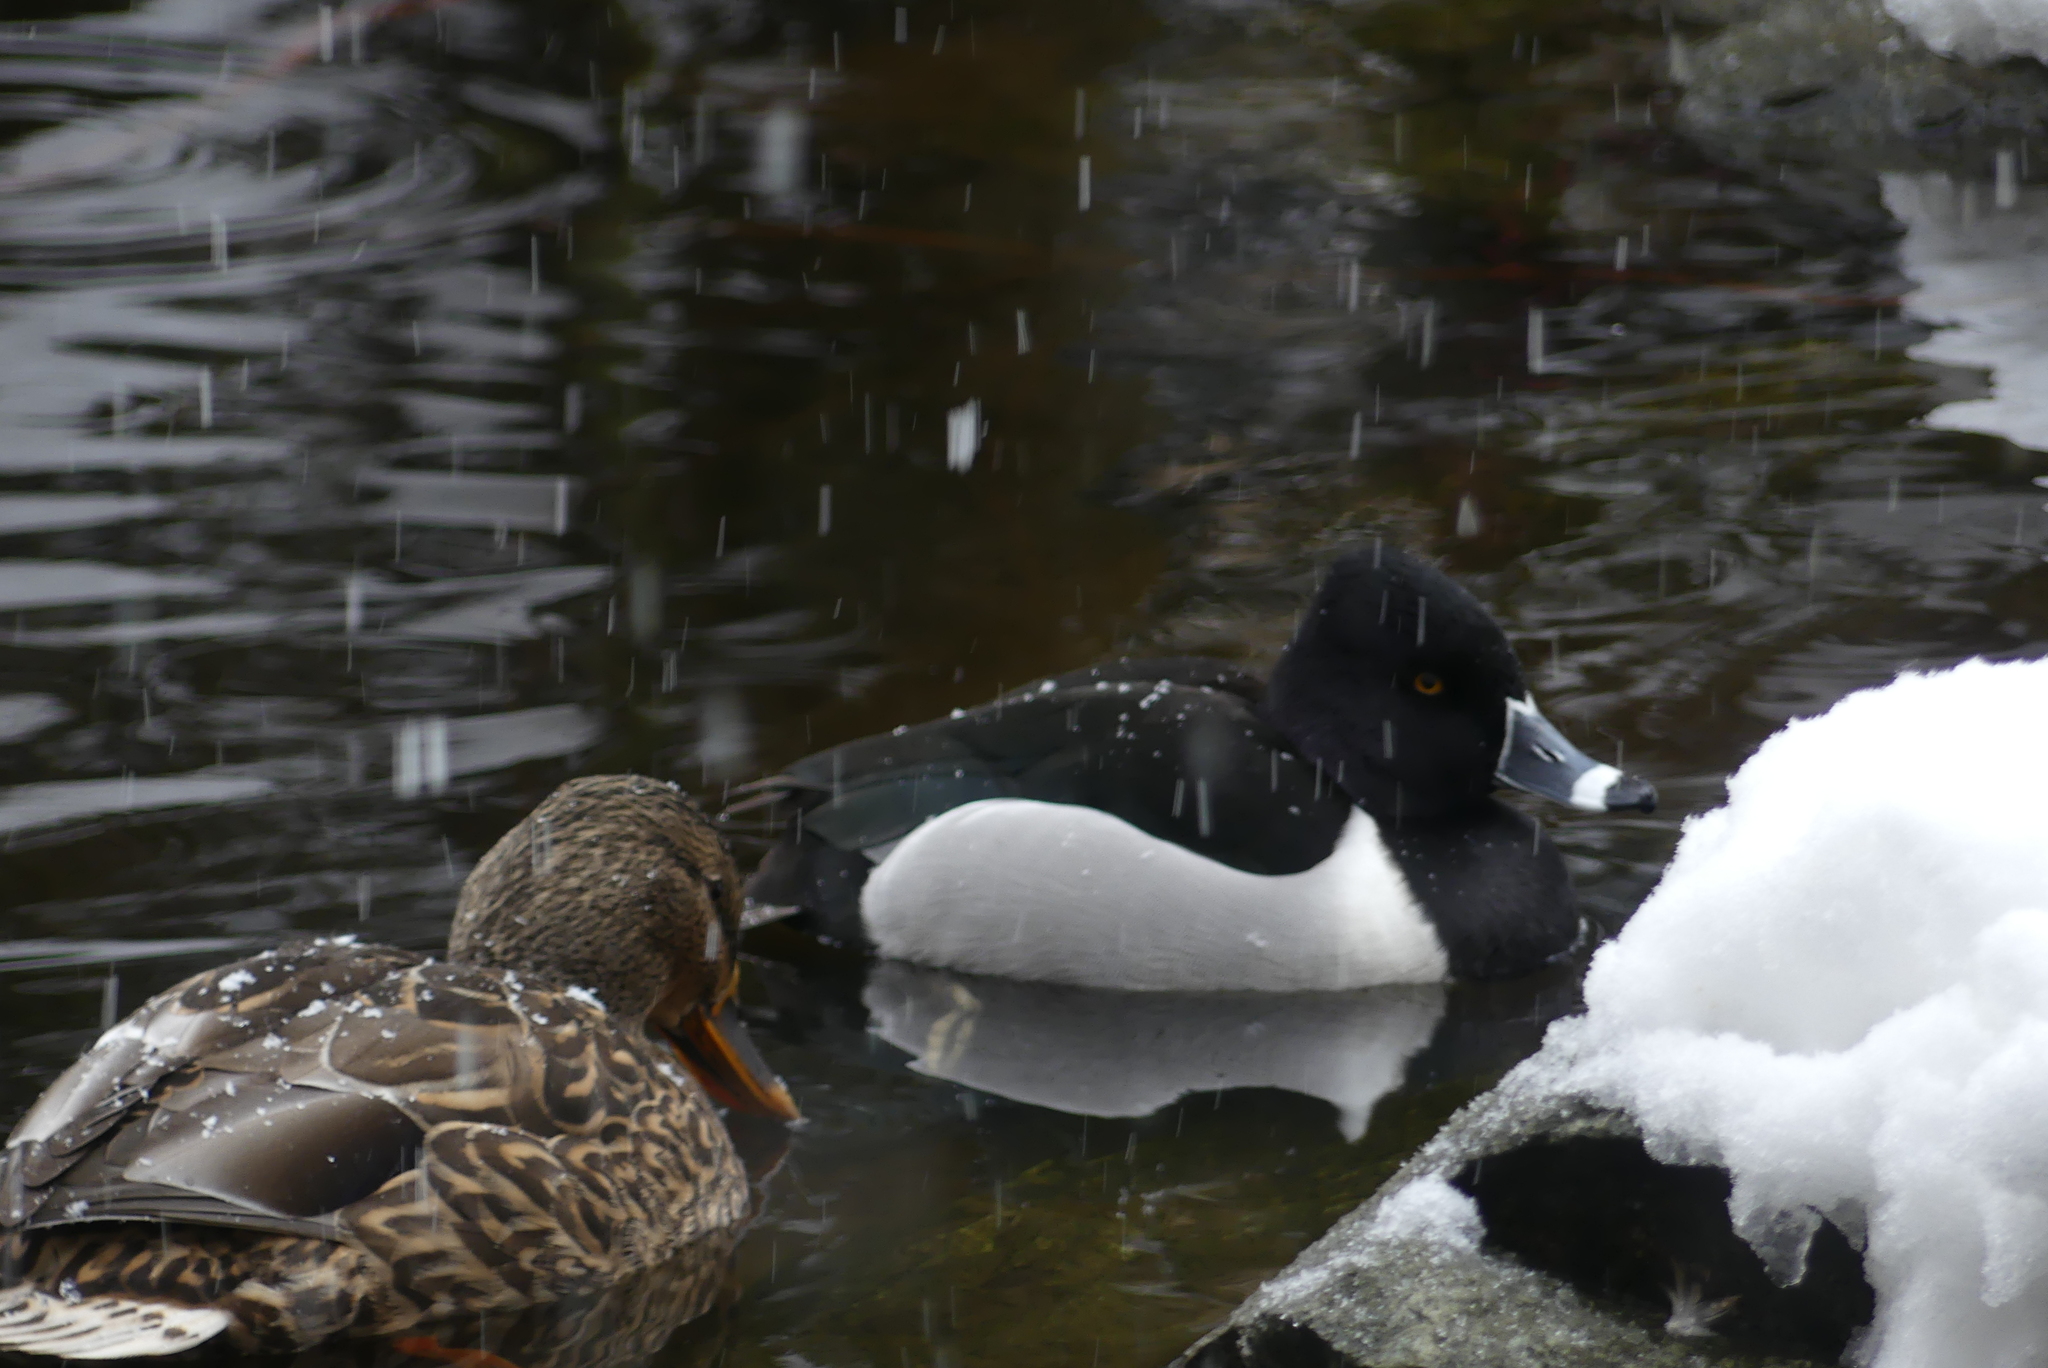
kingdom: Animalia
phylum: Chordata
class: Aves
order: Anseriformes
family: Anatidae
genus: Aythya
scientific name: Aythya collaris
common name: Ring-necked duck
